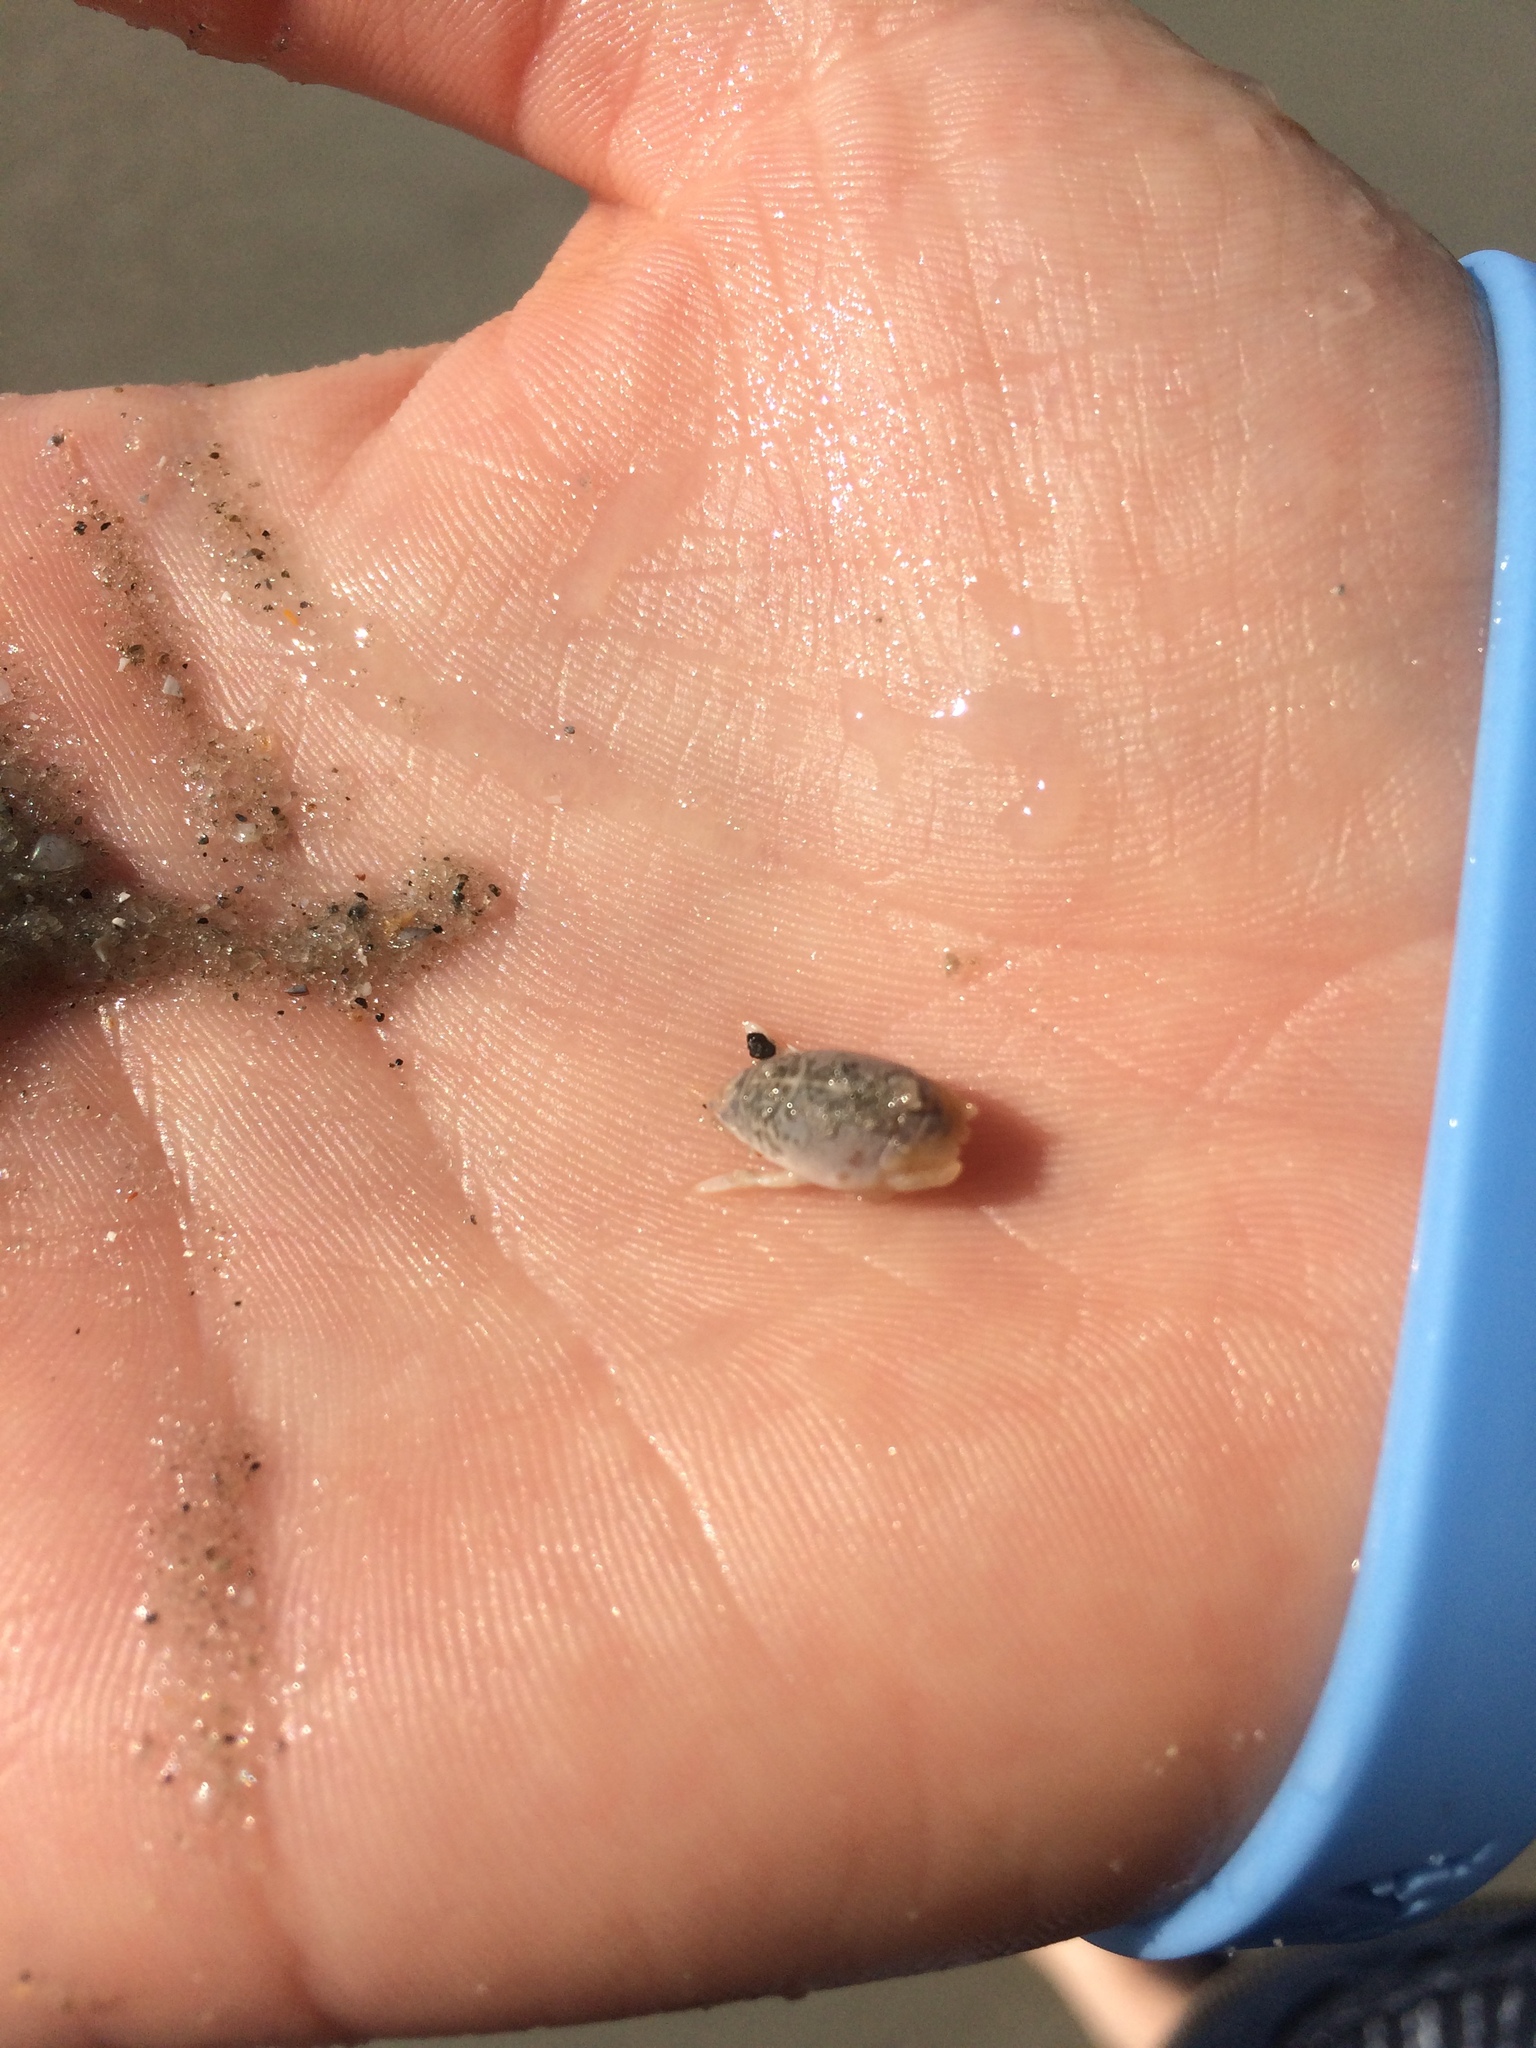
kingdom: Animalia
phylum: Arthropoda
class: Malacostraca
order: Decapoda
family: Hippidae
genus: Emerita
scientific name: Emerita talpoida
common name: Atlantic sand crab
